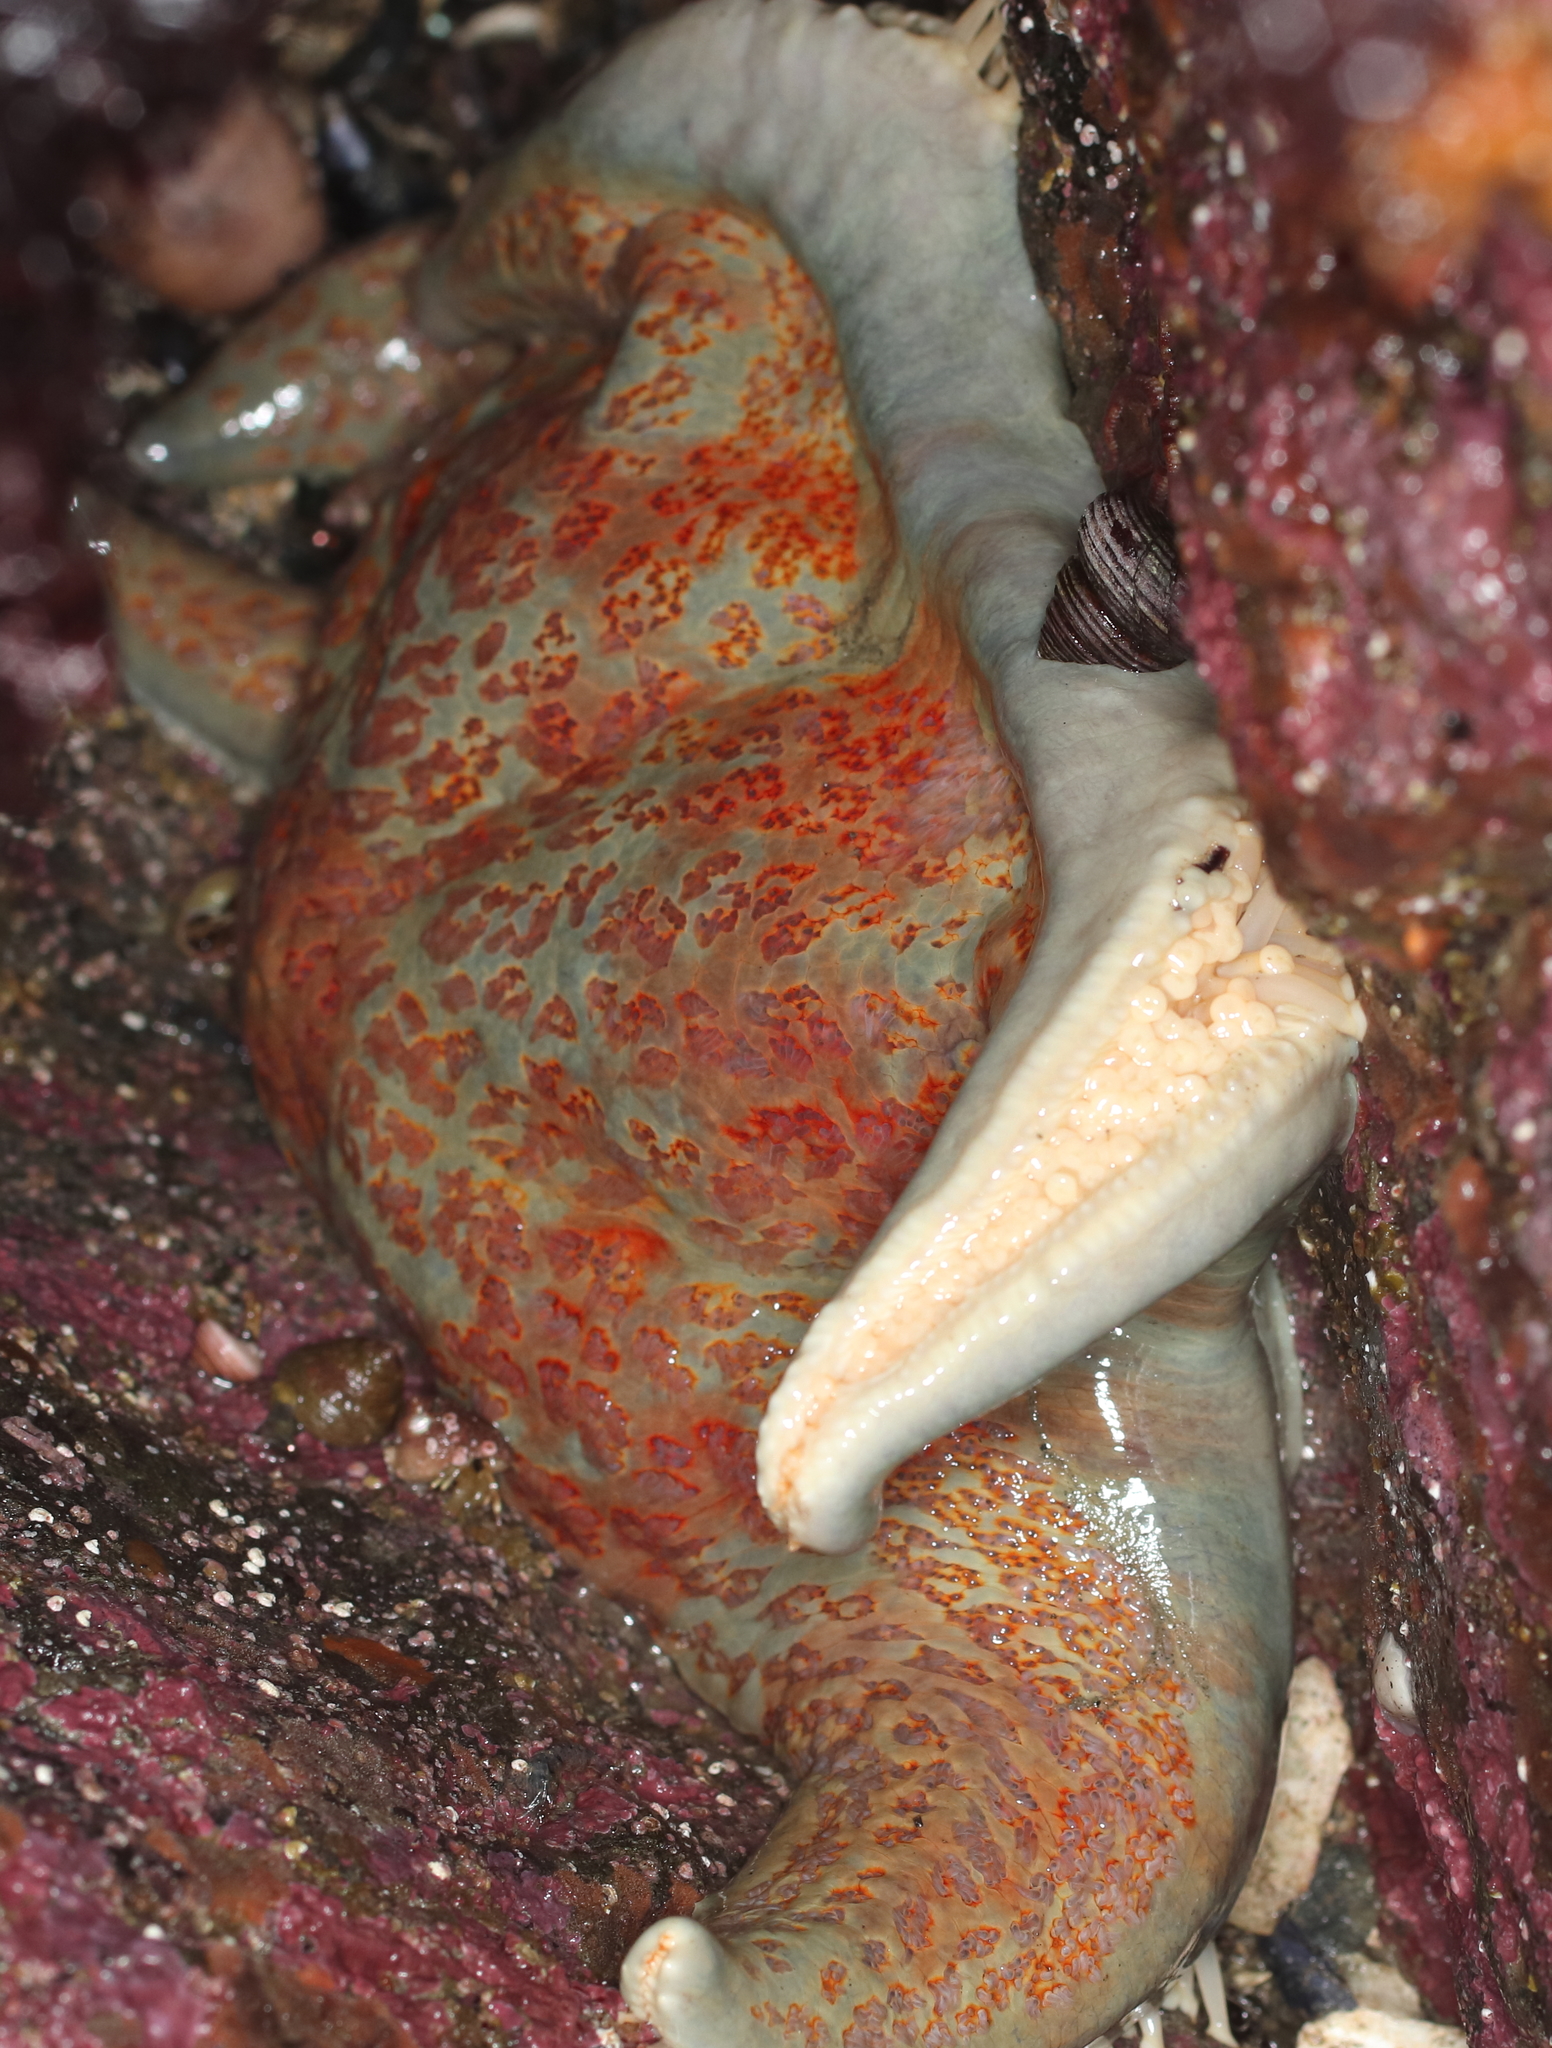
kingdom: Animalia
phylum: Echinodermata
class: Asteroidea
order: Valvatida
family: Asteropseidae
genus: Dermasterias
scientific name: Dermasterias imbricata
